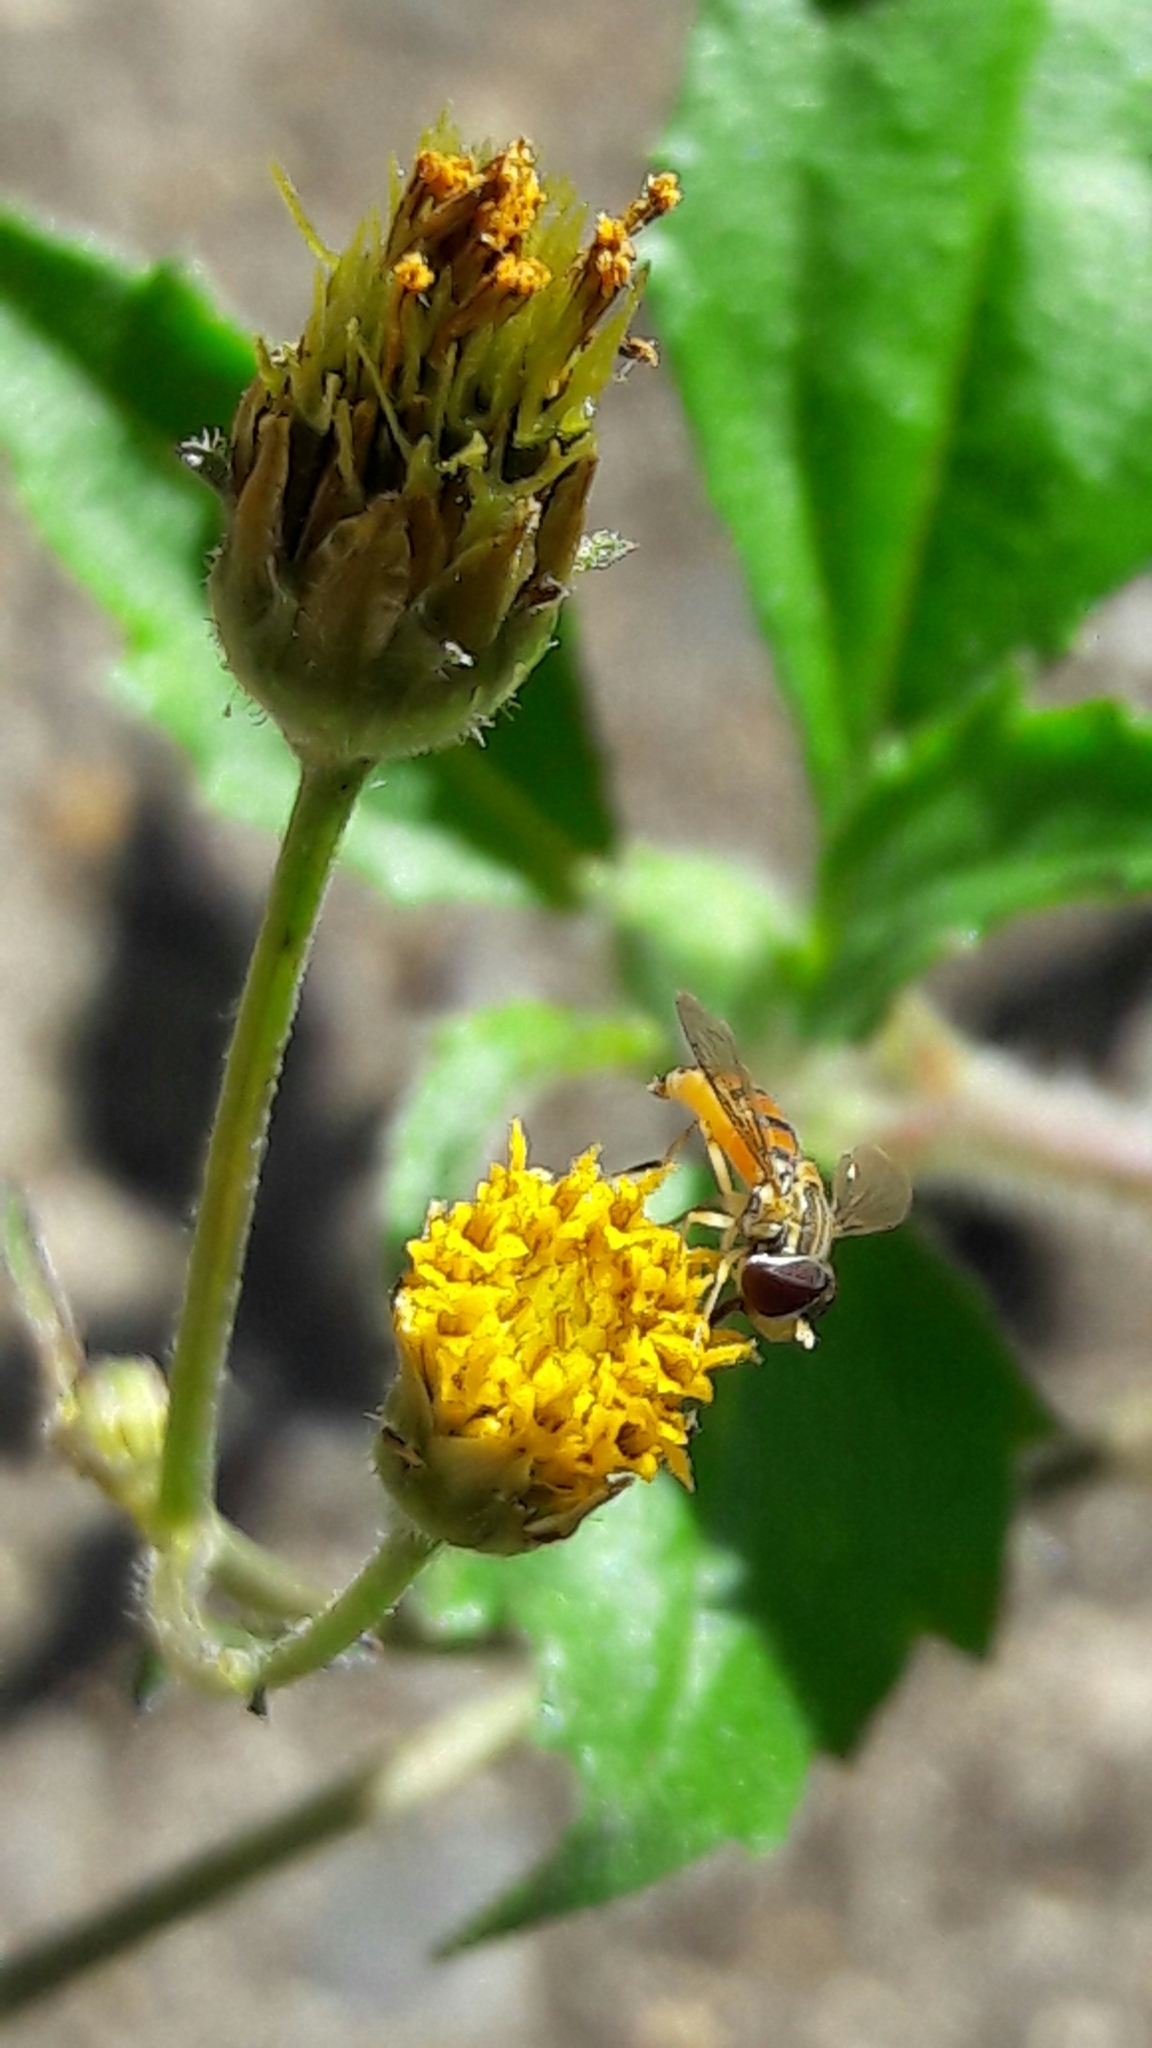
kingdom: Animalia
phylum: Arthropoda
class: Insecta
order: Diptera
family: Syrphidae
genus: Toxomerus
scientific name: Toxomerus
